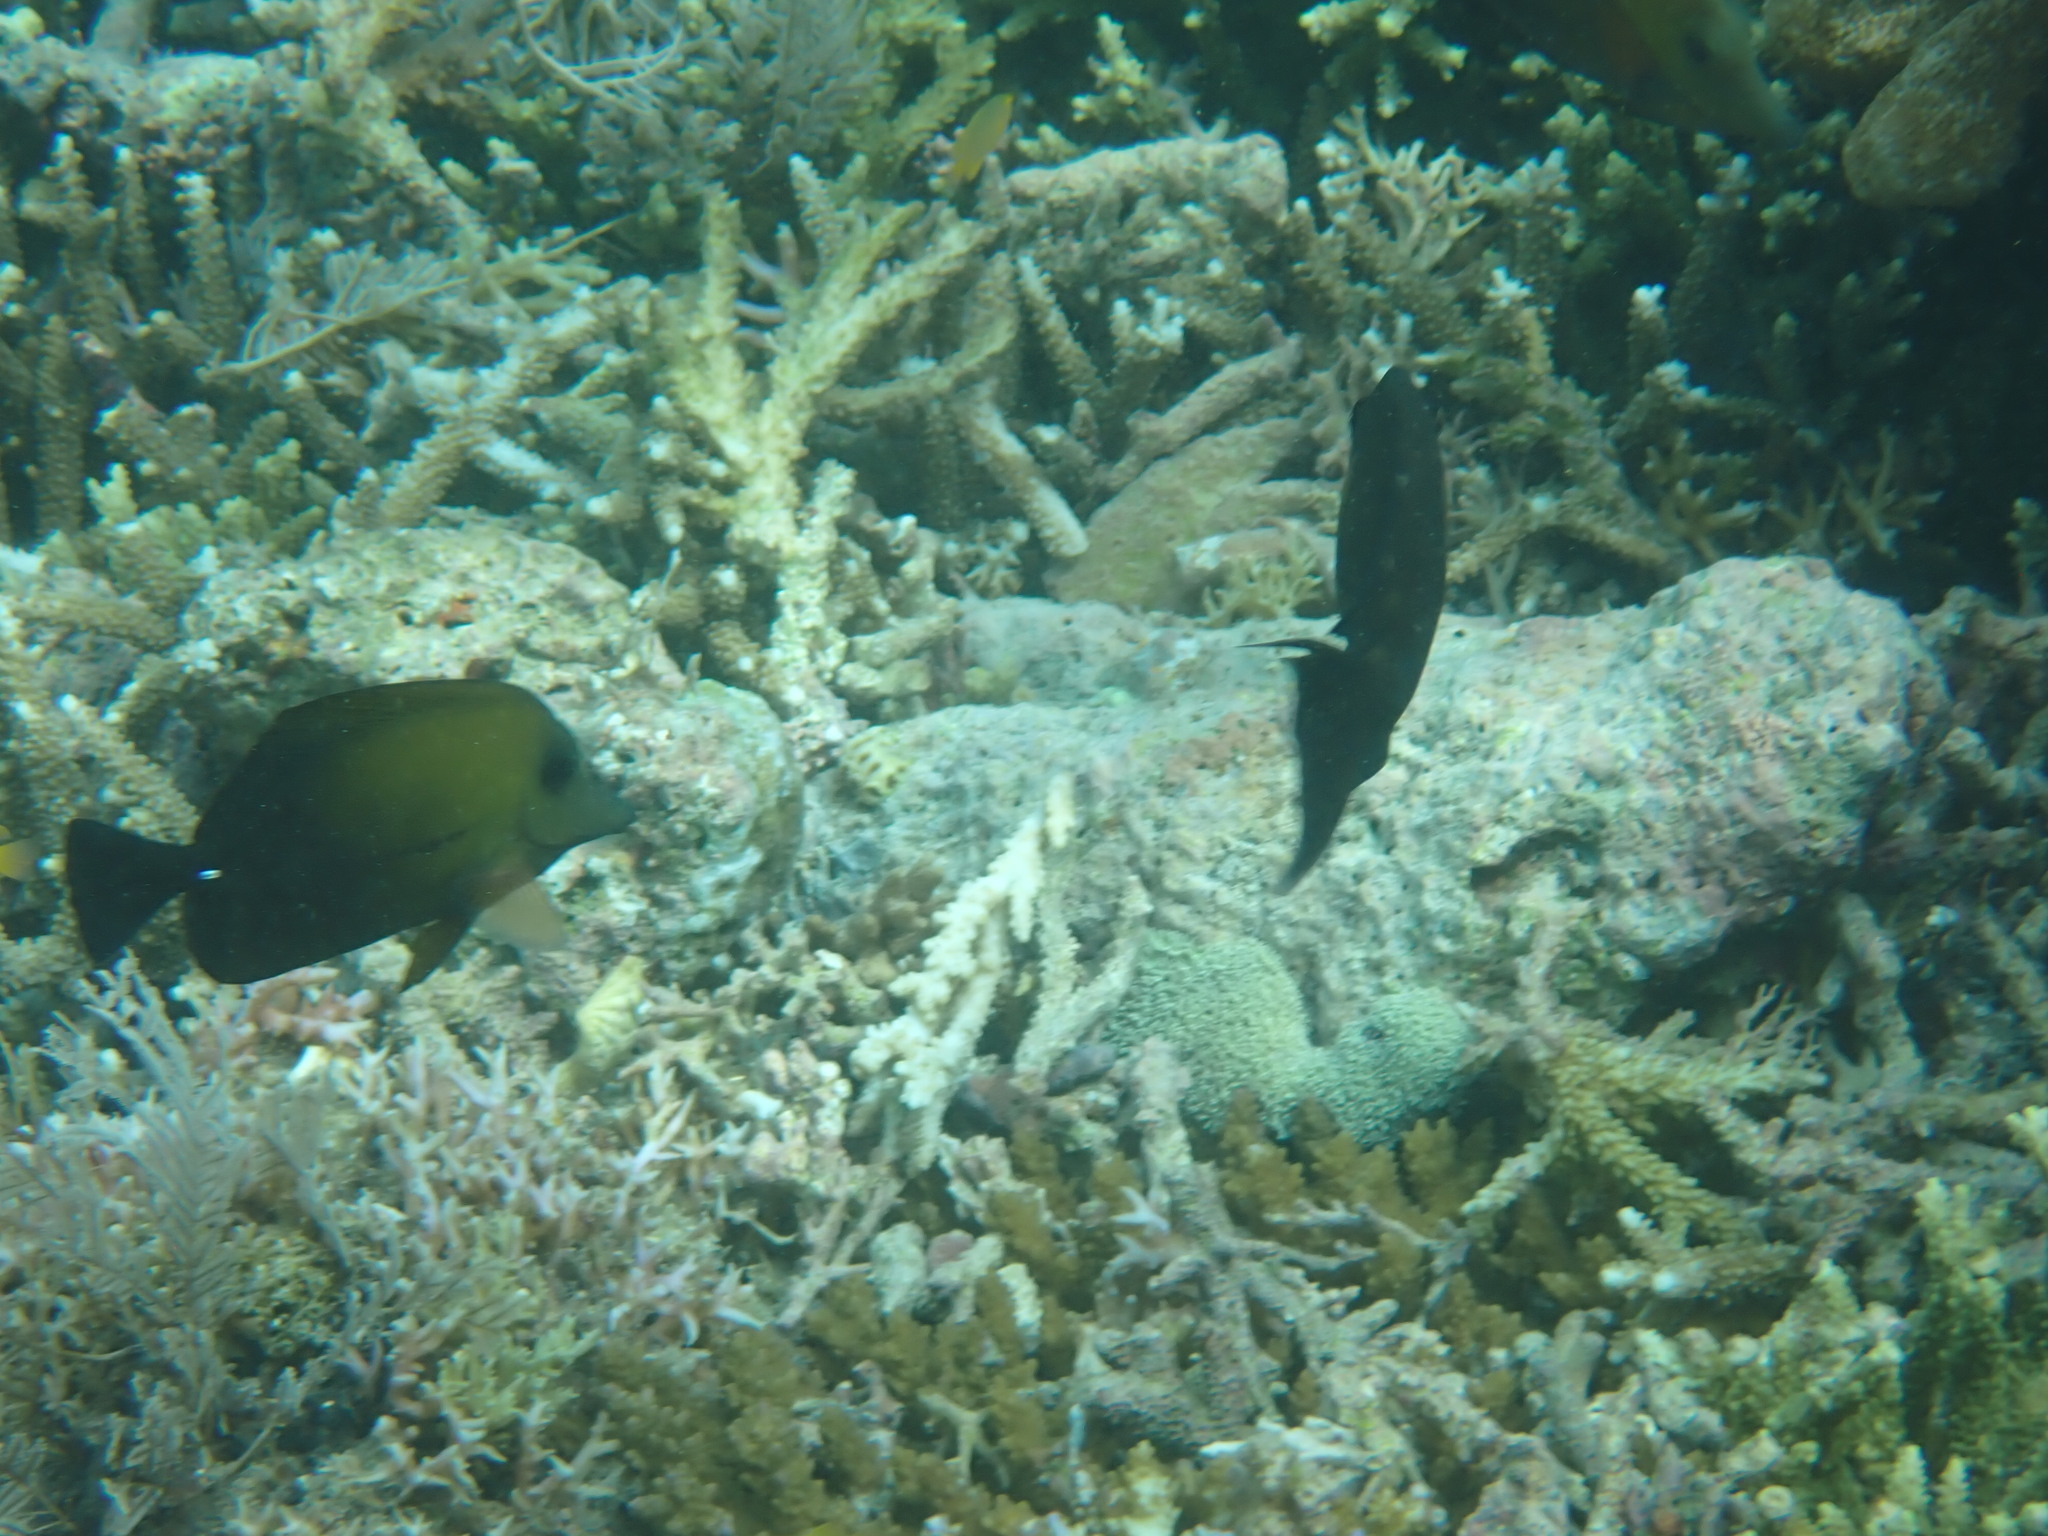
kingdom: Animalia
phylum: Chordata
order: Perciformes
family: Acanthuridae
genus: Zebrasoma
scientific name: Zebrasoma scopas
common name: Twotone tang
